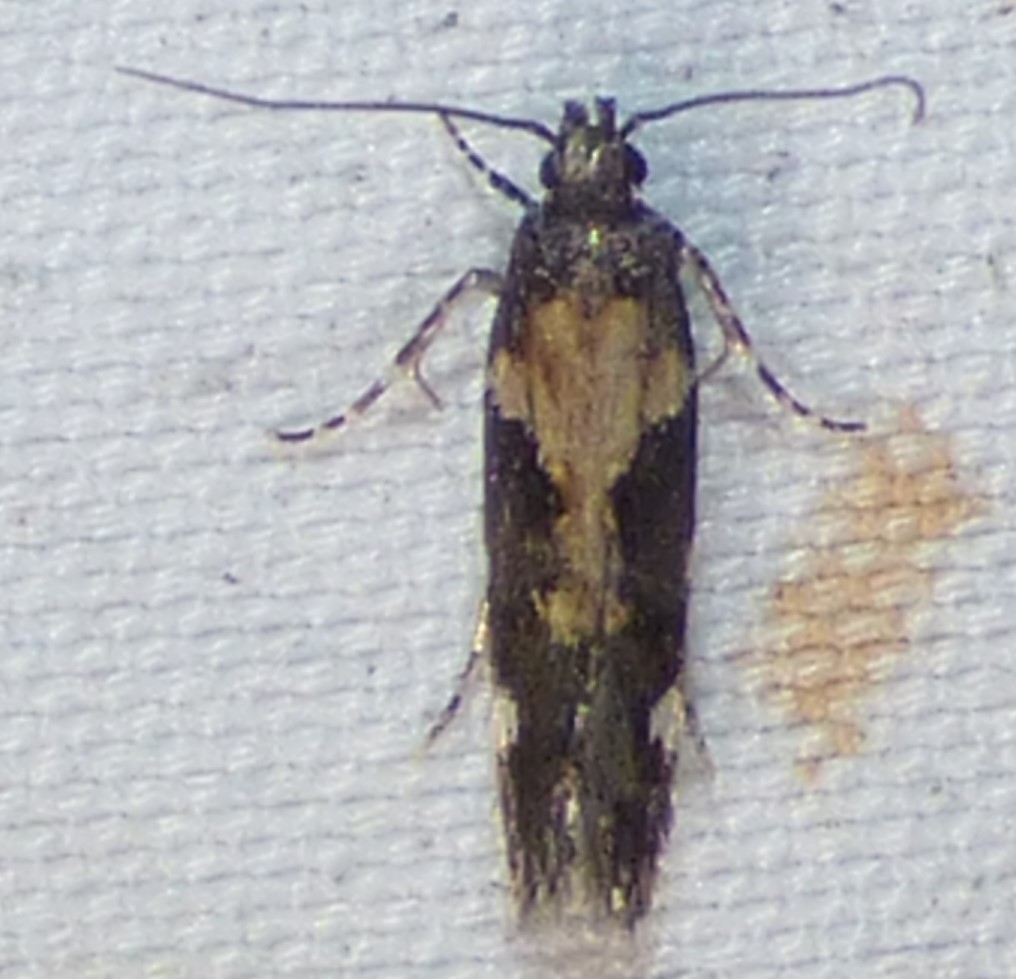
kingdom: Animalia
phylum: Arthropoda
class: Insecta
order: Lepidoptera
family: Gelechiidae
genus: Stegasta
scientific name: Stegasta bosqueella
